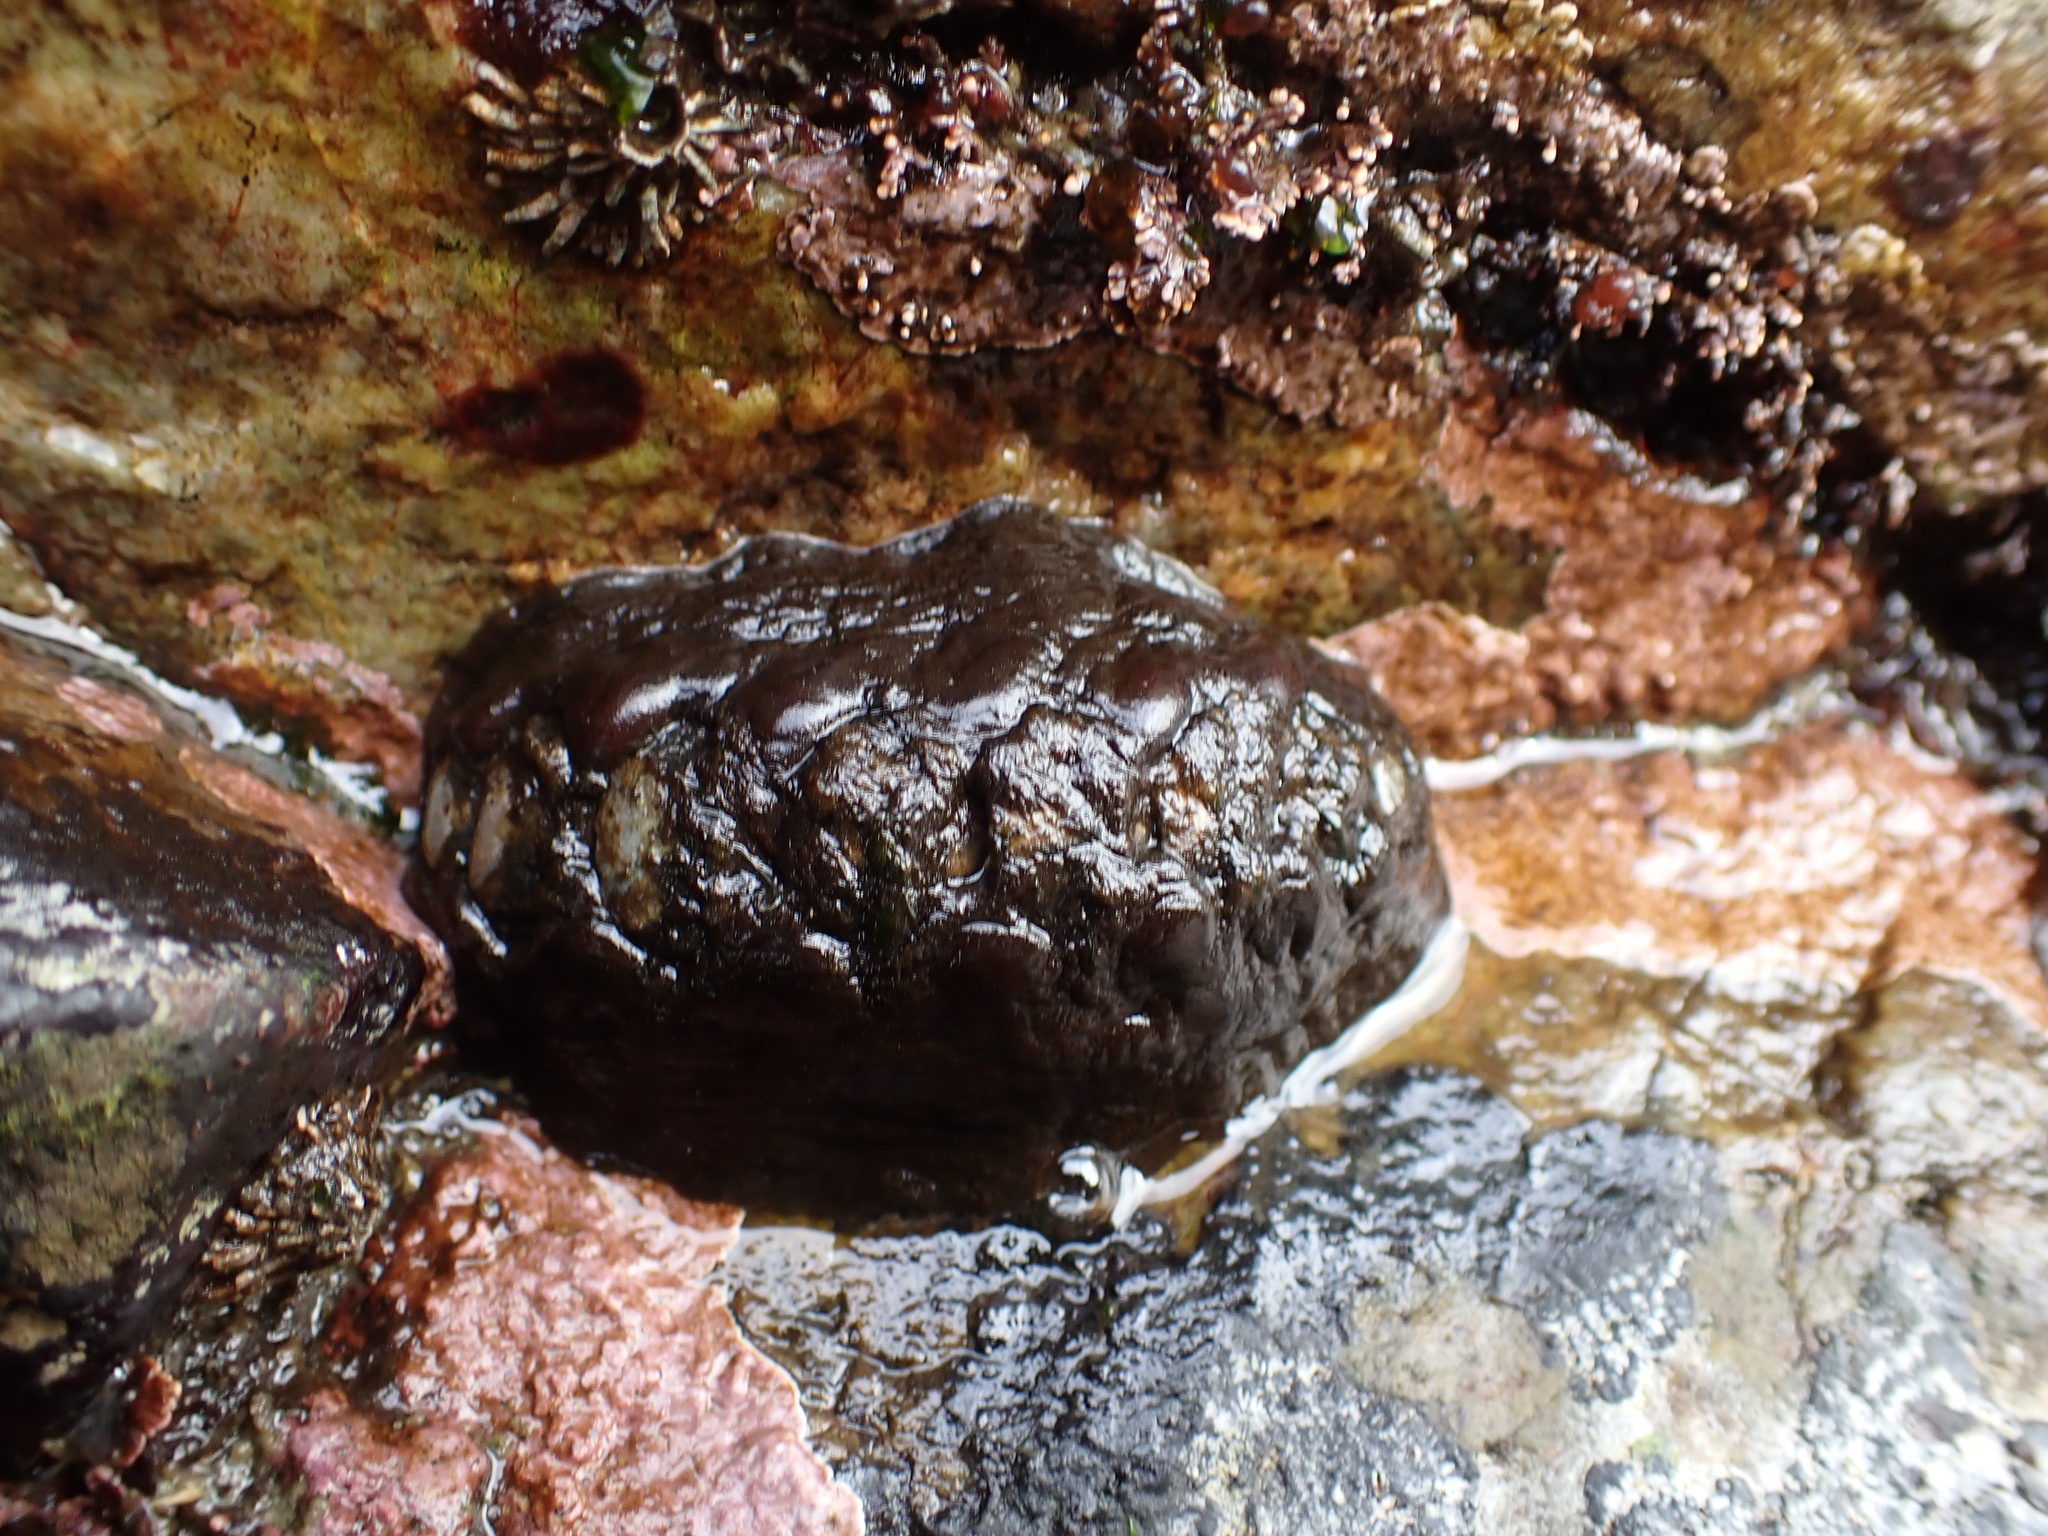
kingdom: Animalia
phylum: Mollusca
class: Polyplacophora
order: Chitonida
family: Mopaliidae
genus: Katharina
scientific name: Katharina tunicata
